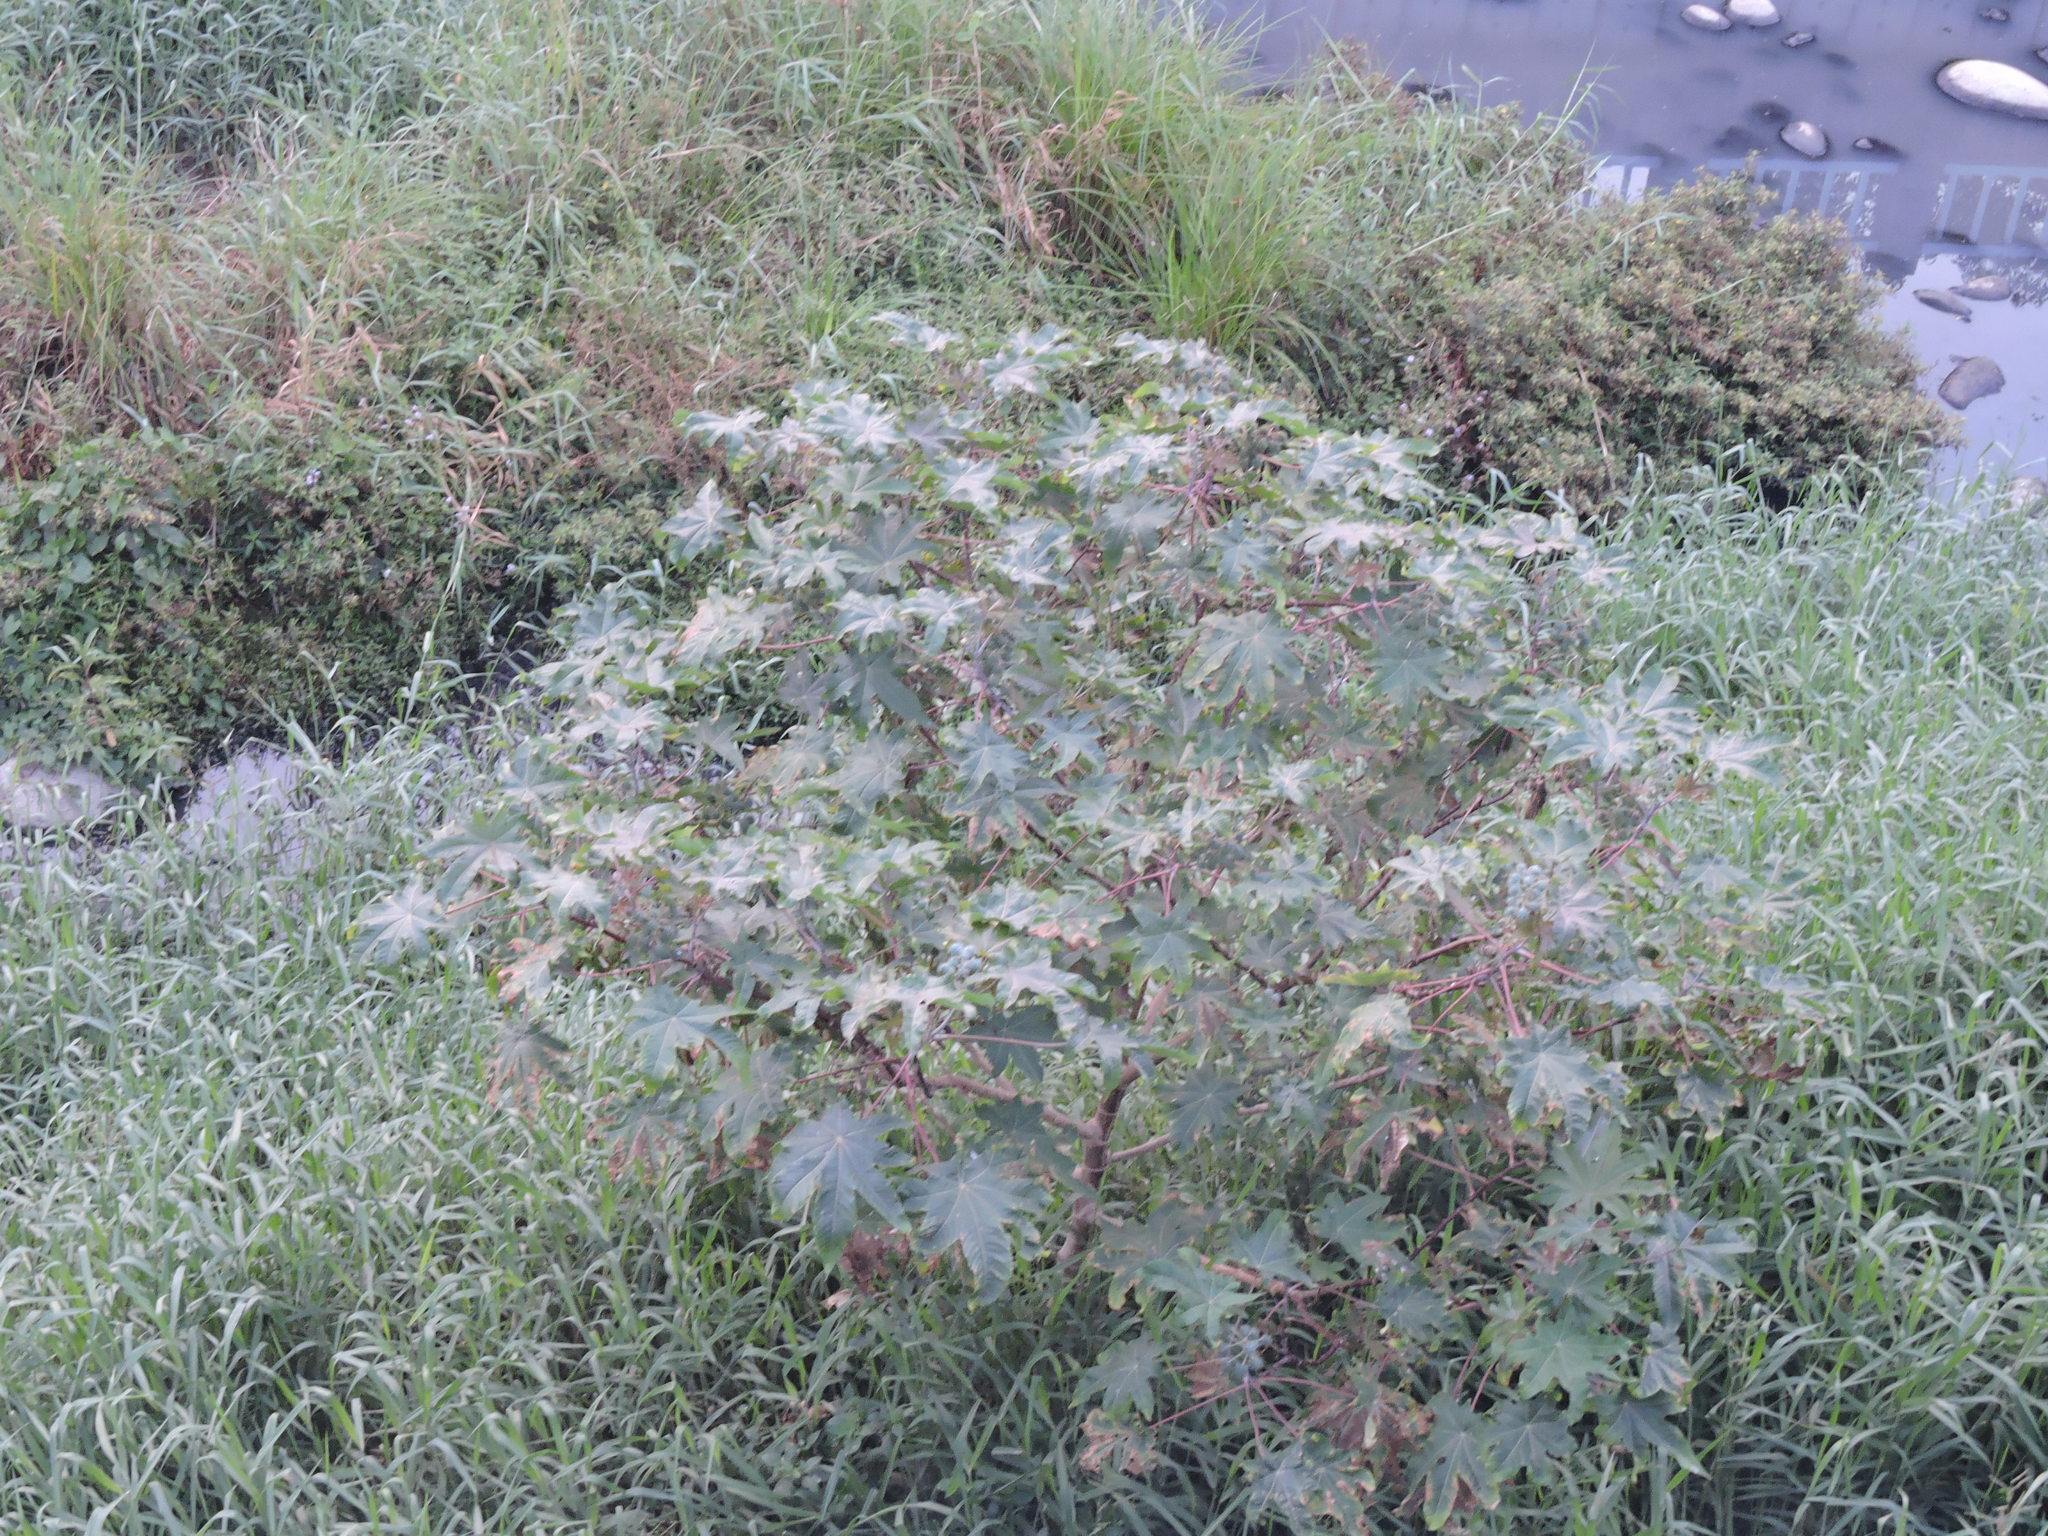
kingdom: Plantae
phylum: Tracheophyta
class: Magnoliopsida
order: Malpighiales
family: Euphorbiaceae
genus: Ricinus
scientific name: Ricinus communis
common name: Castor-oil-plant
